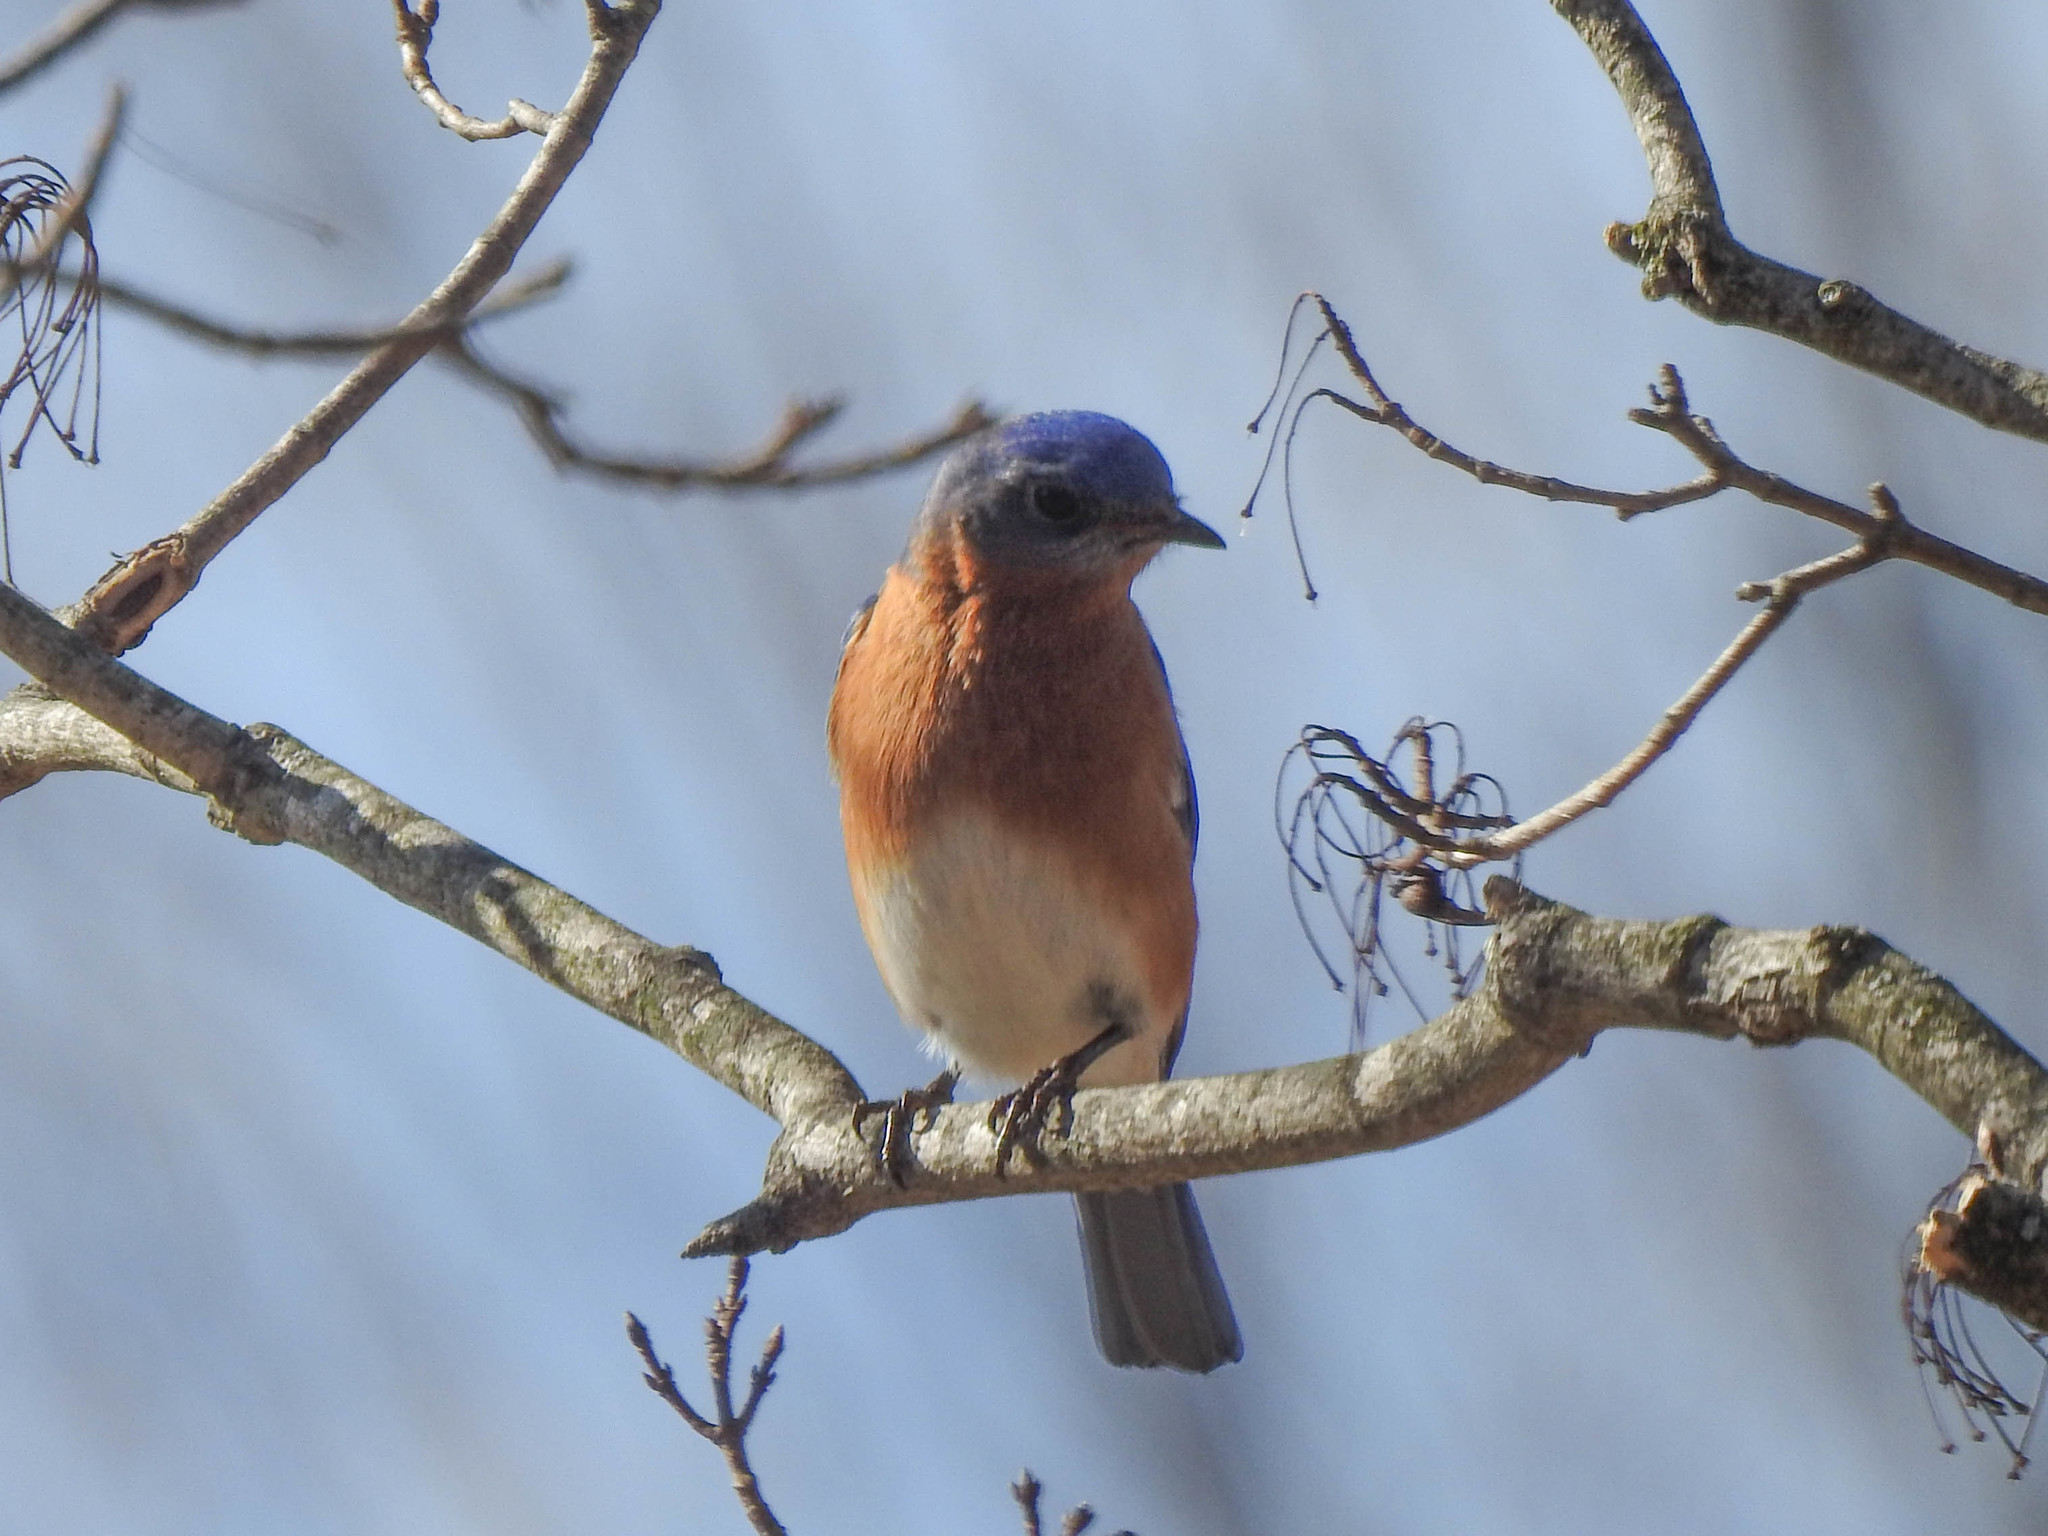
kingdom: Animalia
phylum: Chordata
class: Aves
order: Passeriformes
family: Turdidae
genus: Sialia
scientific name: Sialia sialis
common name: Eastern bluebird
